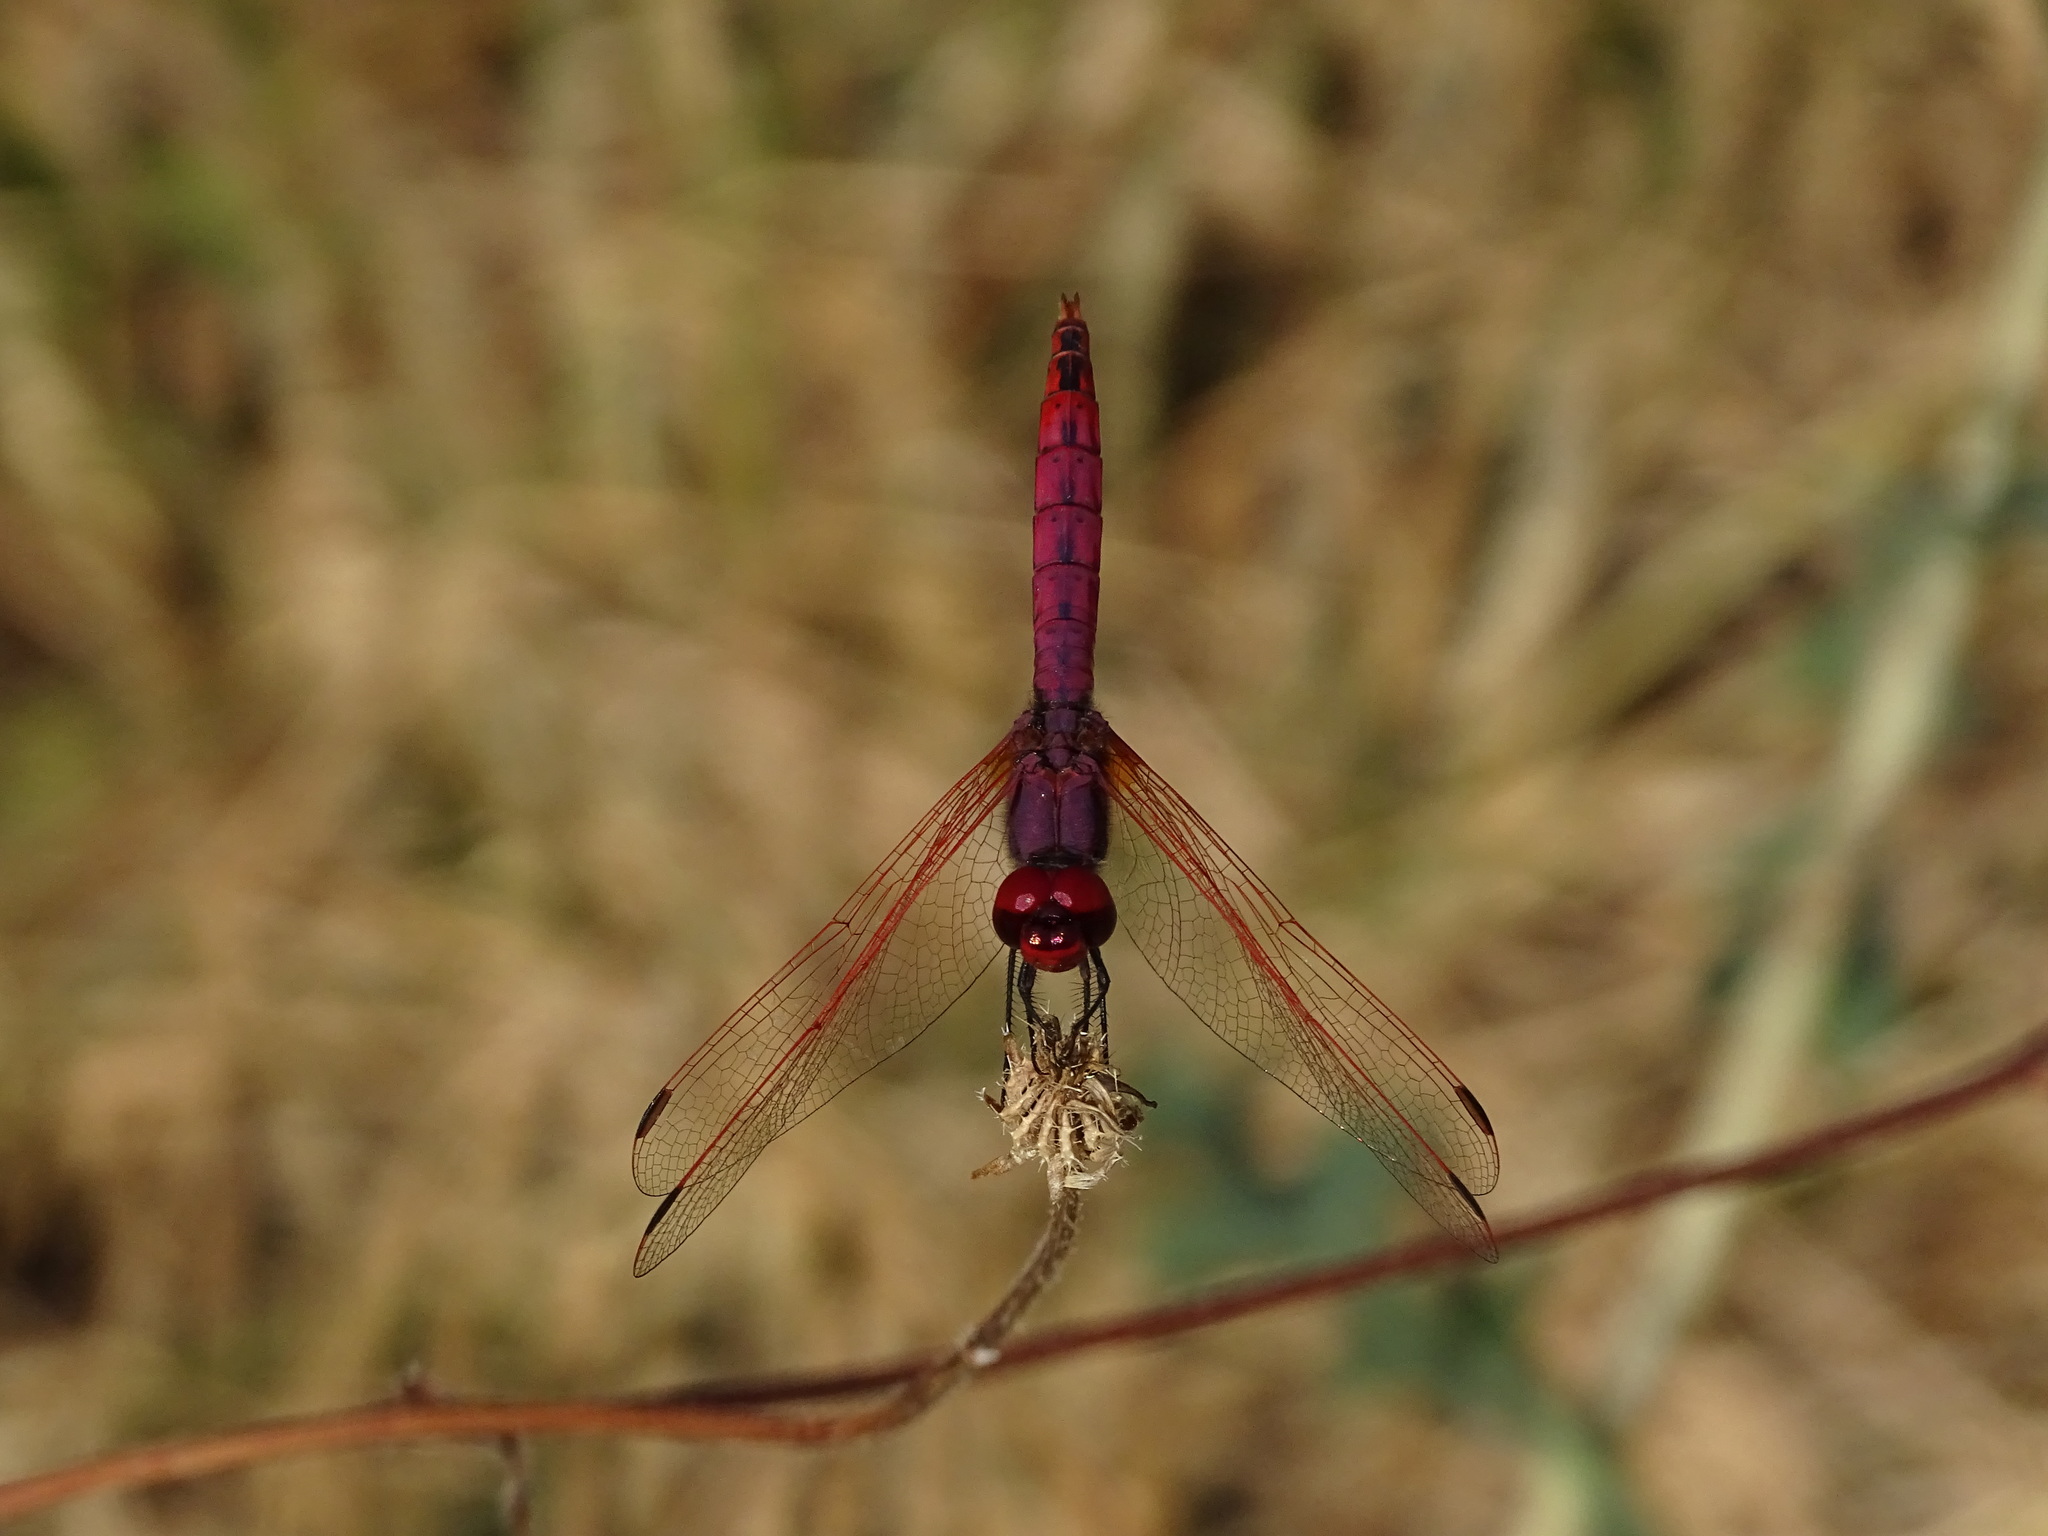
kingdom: Animalia
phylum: Arthropoda
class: Insecta
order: Odonata
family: Libellulidae
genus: Trithemis
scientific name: Trithemis annulata
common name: Violet dropwing
